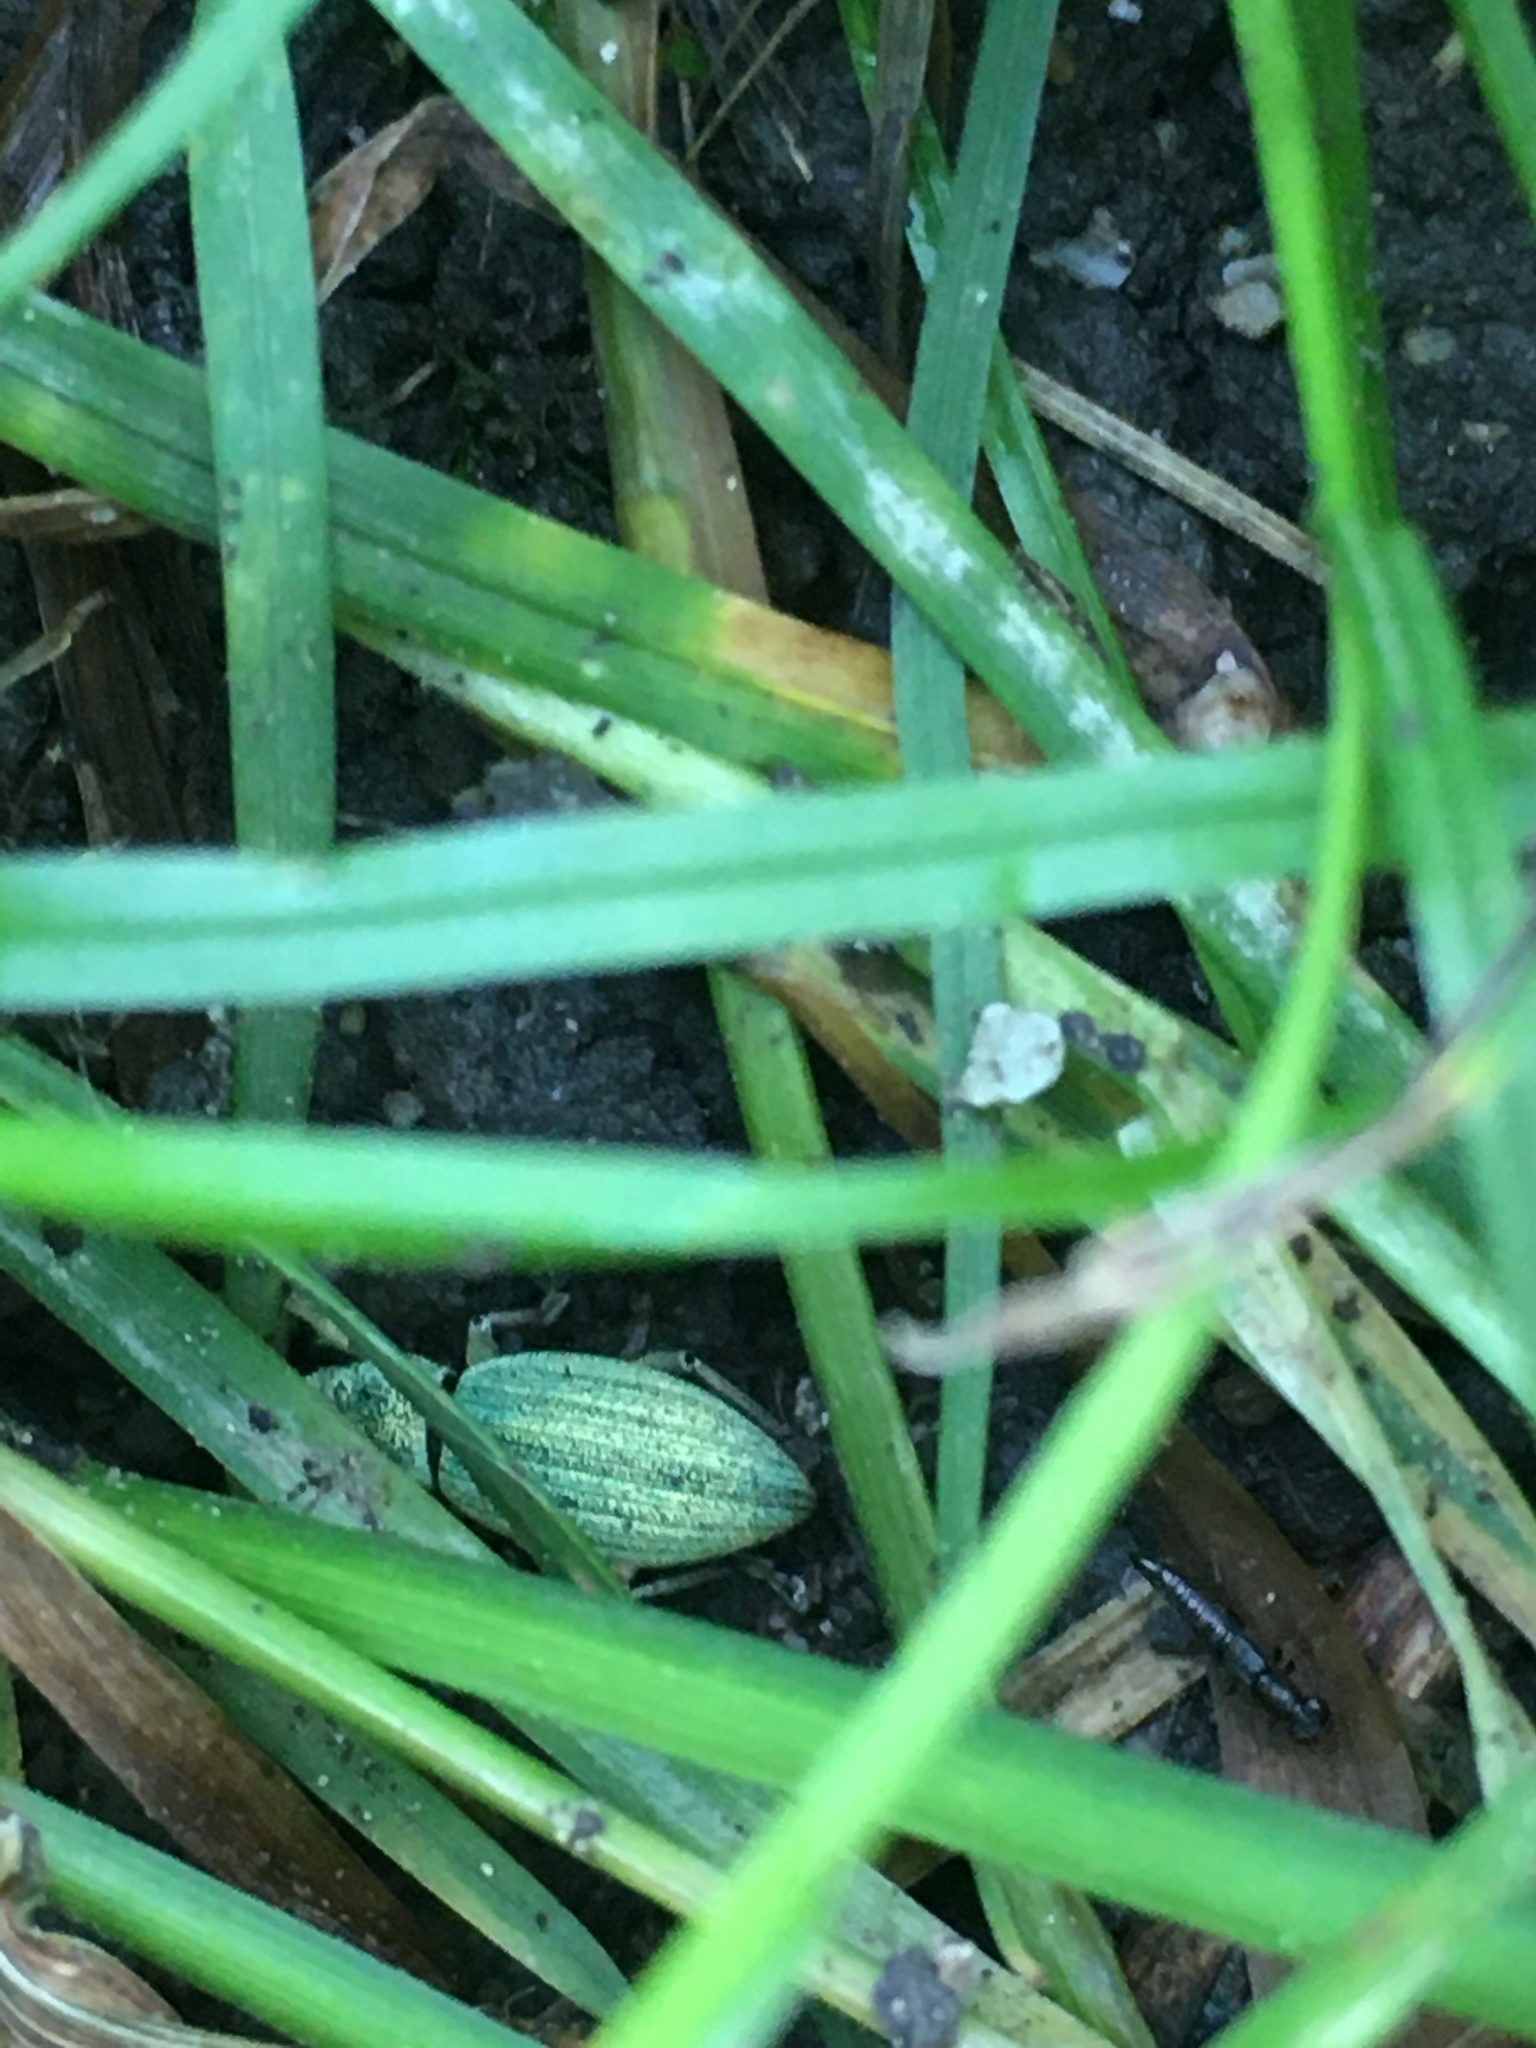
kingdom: Animalia
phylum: Arthropoda
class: Insecta
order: Coleoptera
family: Curculionidae
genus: Eusomus
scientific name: Eusomus ovulum
